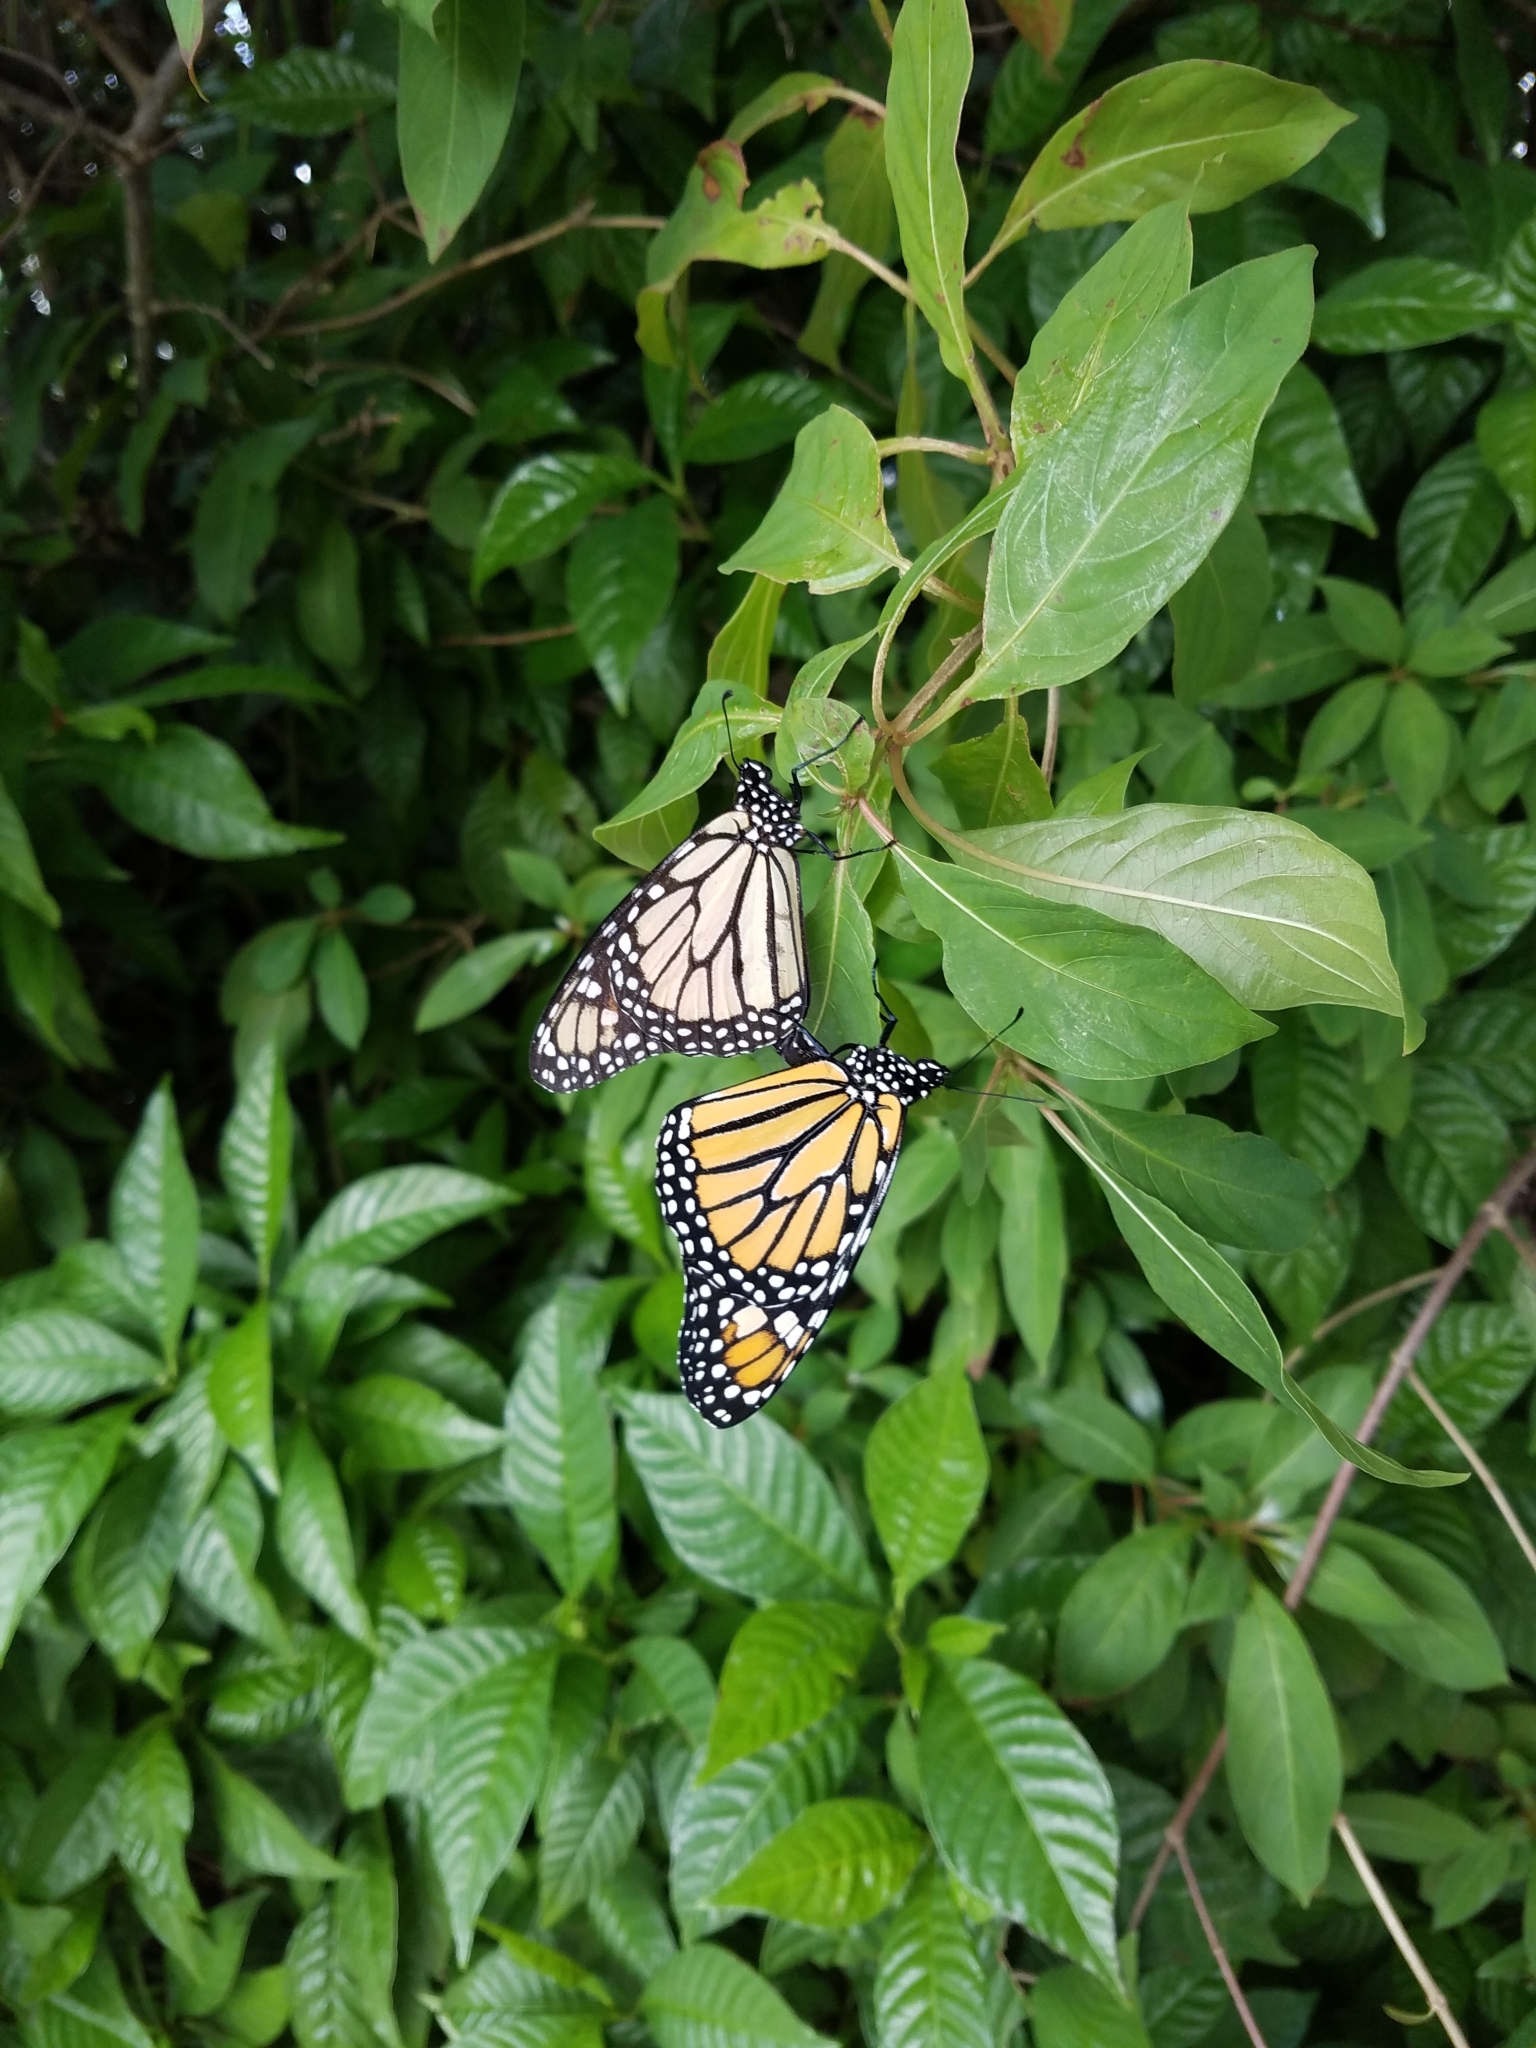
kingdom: Animalia
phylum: Arthropoda
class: Insecta
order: Lepidoptera
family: Nymphalidae
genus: Danaus
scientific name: Danaus plexippus
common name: Monarch
